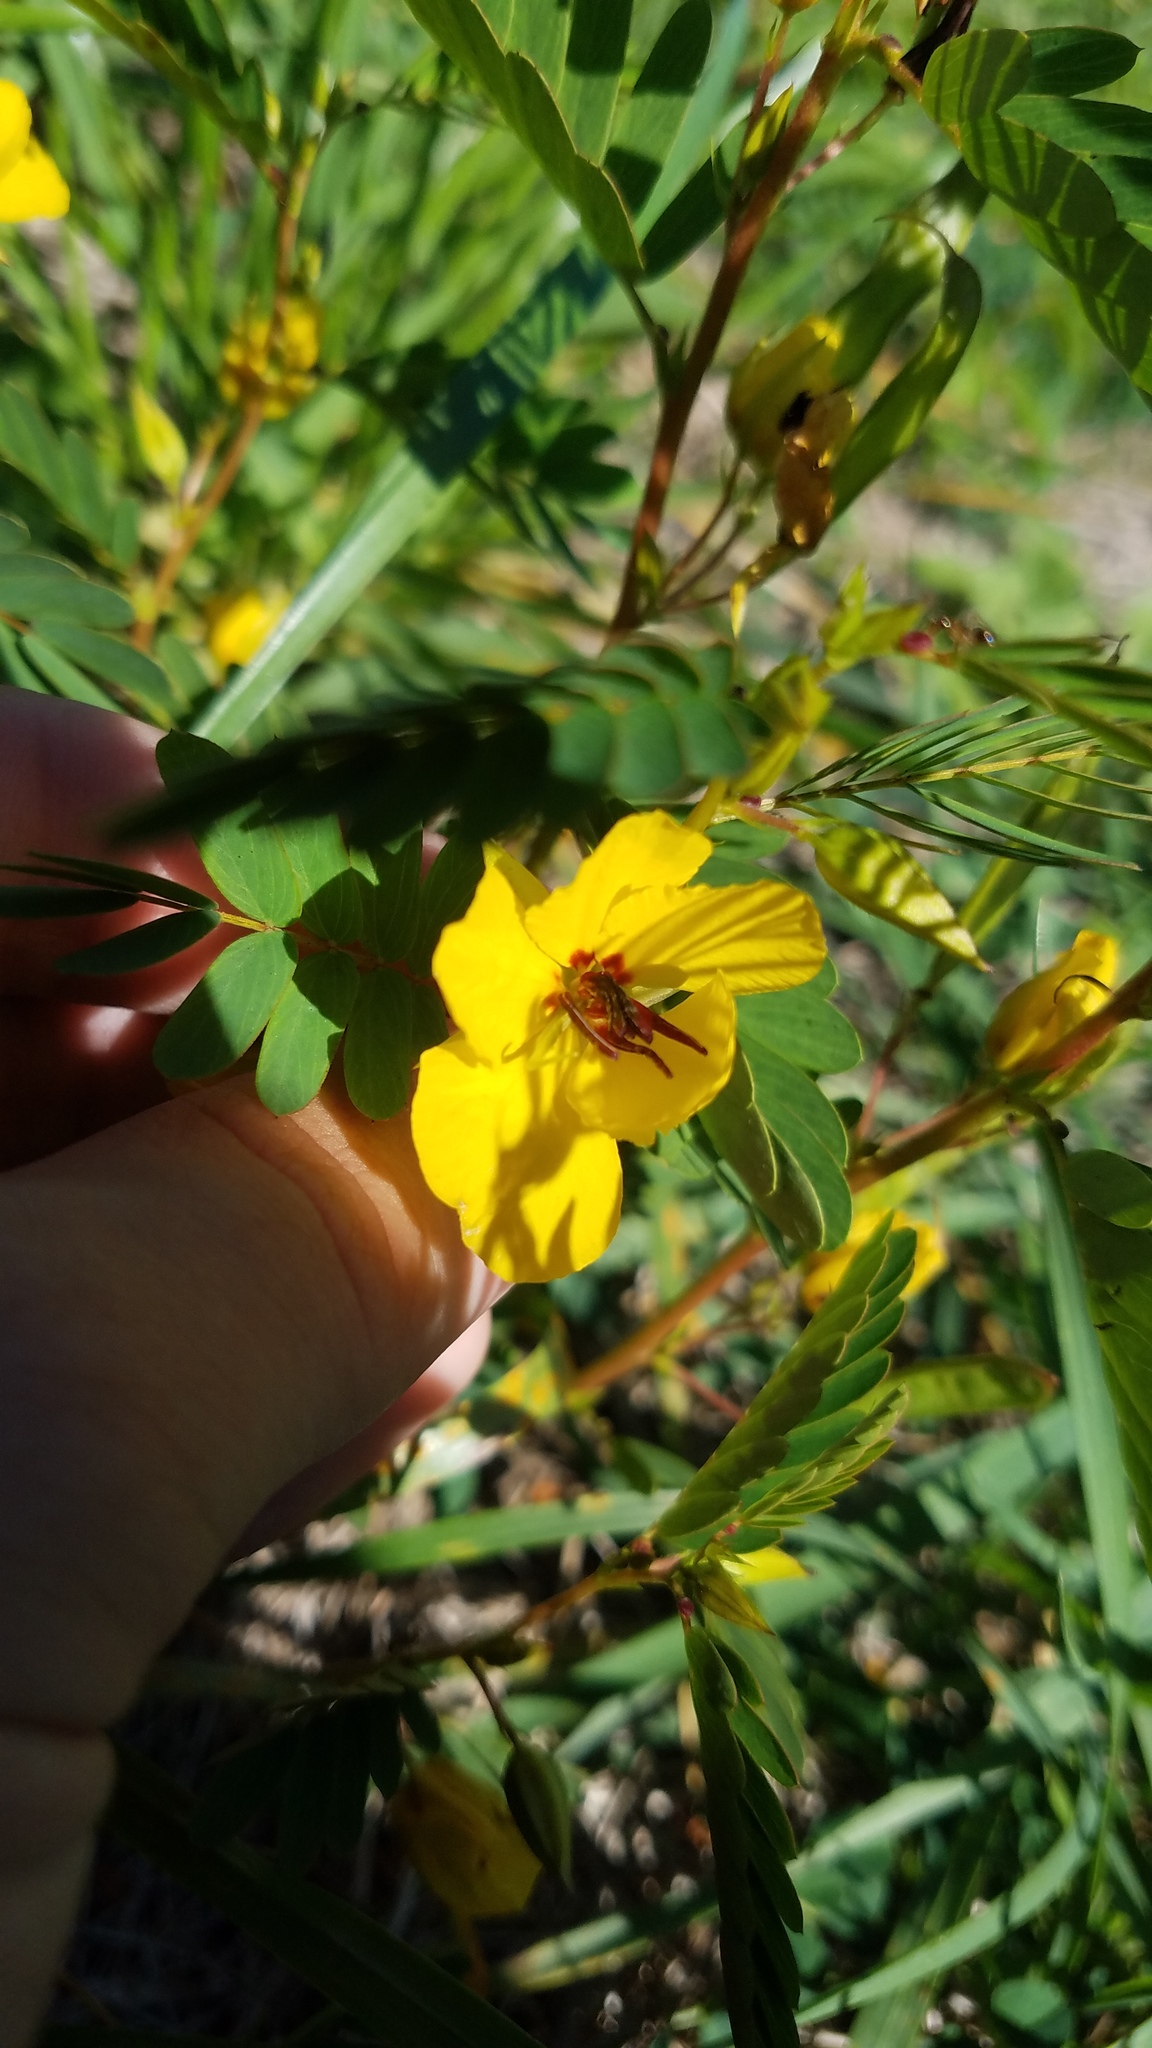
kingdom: Plantae
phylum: Tracheophyta
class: Magnoliopsida
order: Fabales
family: Fabaceae
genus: Chamaecrista
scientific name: Chamaecrista fasciculata
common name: Golden cassia
